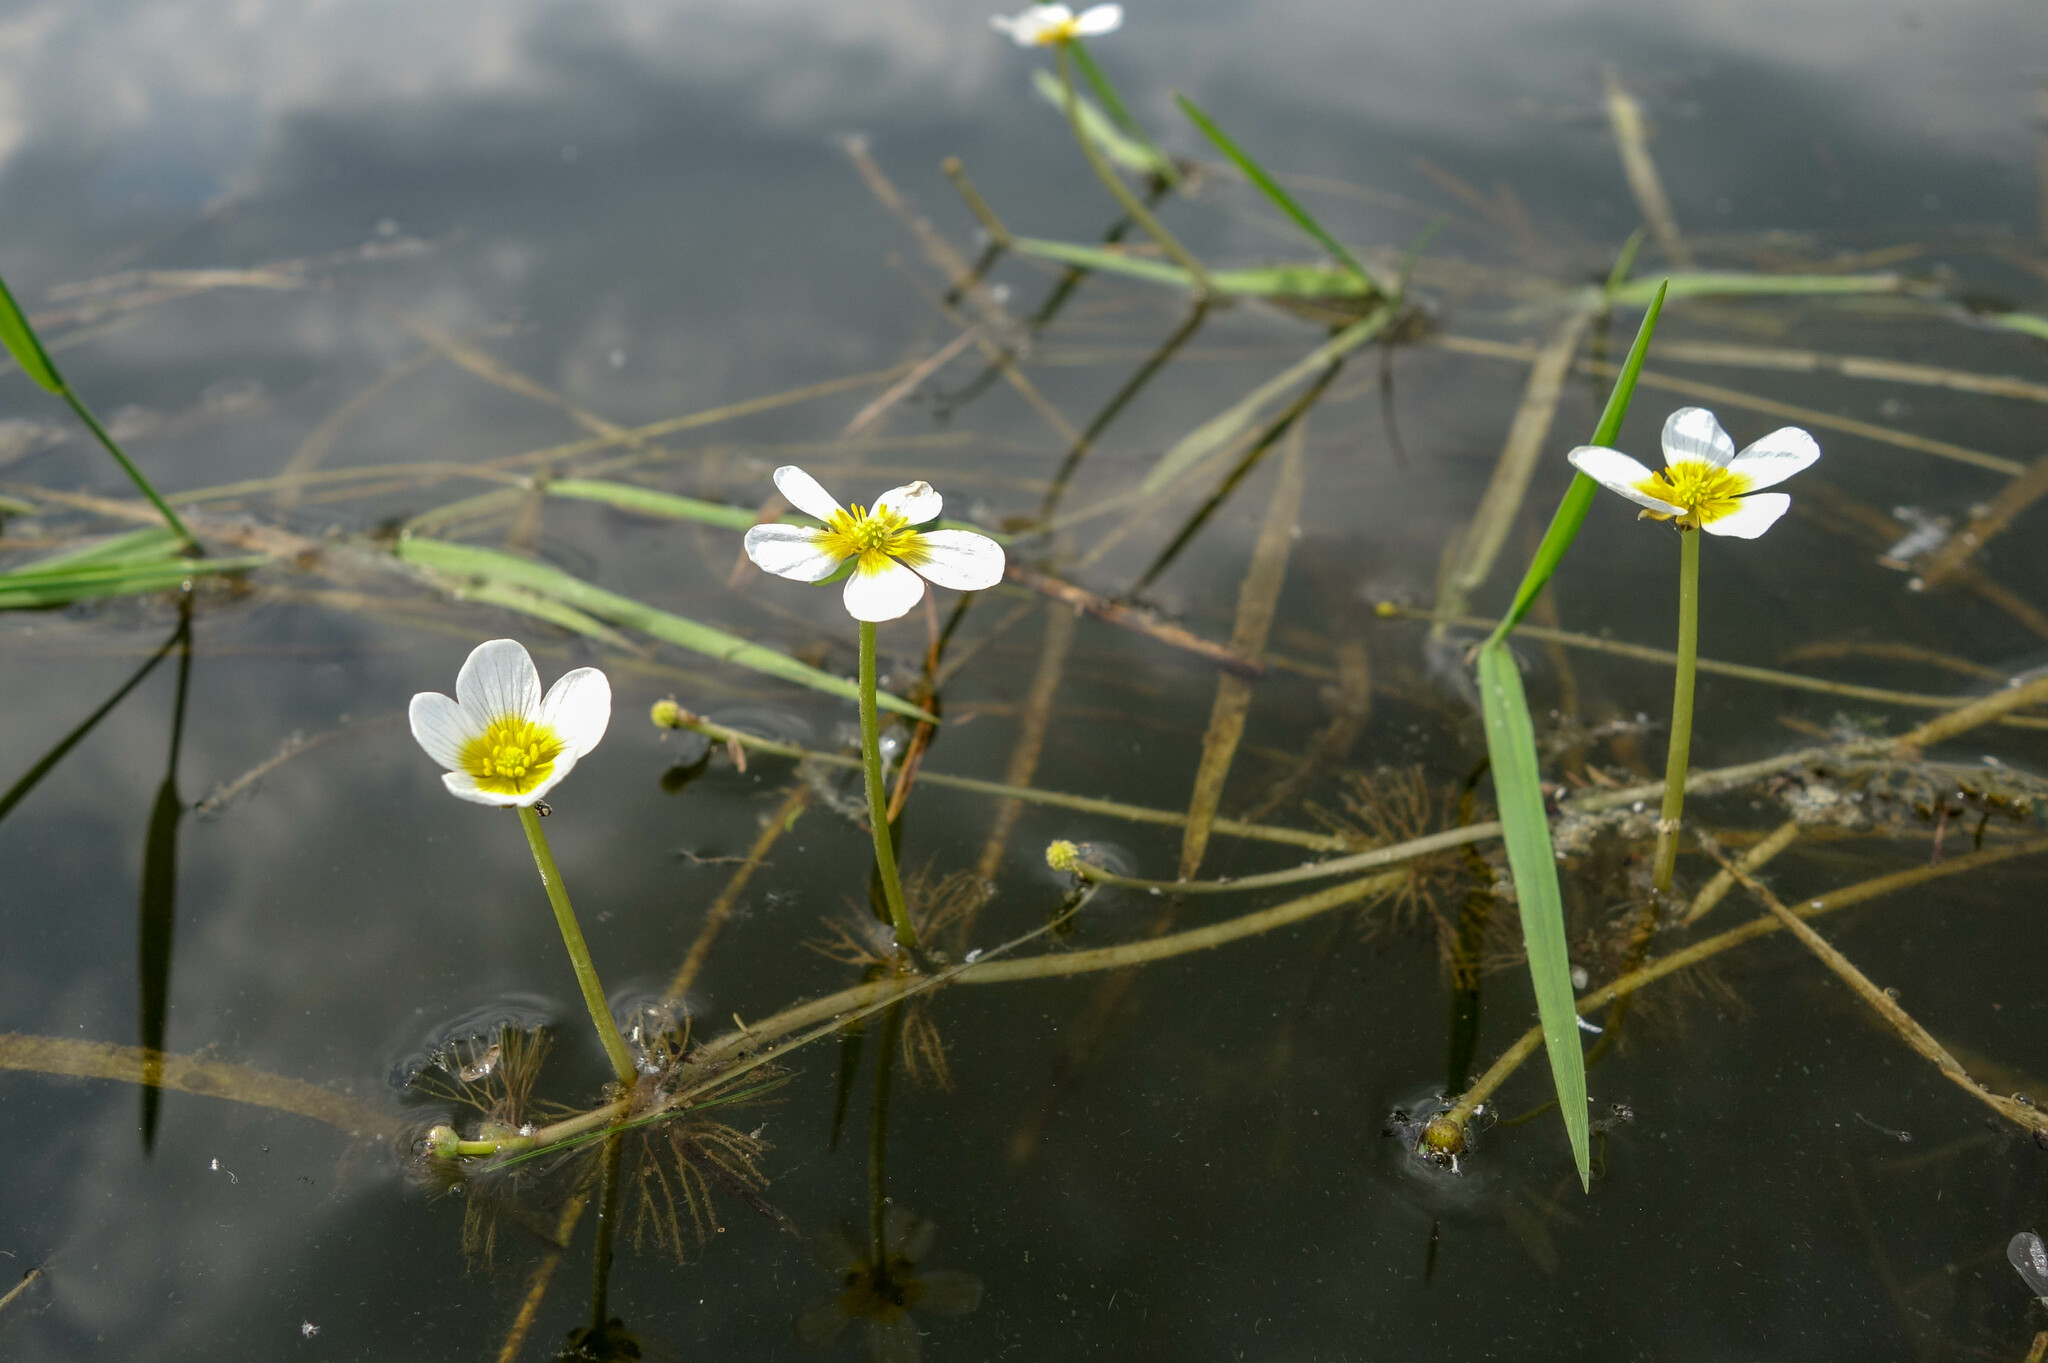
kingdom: Plantae
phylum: Tracheophyta
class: Magnoliopsida
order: Ranunculales
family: Ranunculaceae
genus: Ranunculus
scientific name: Ranunculus circinatus
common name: Fan-leaved water-crowfoot
